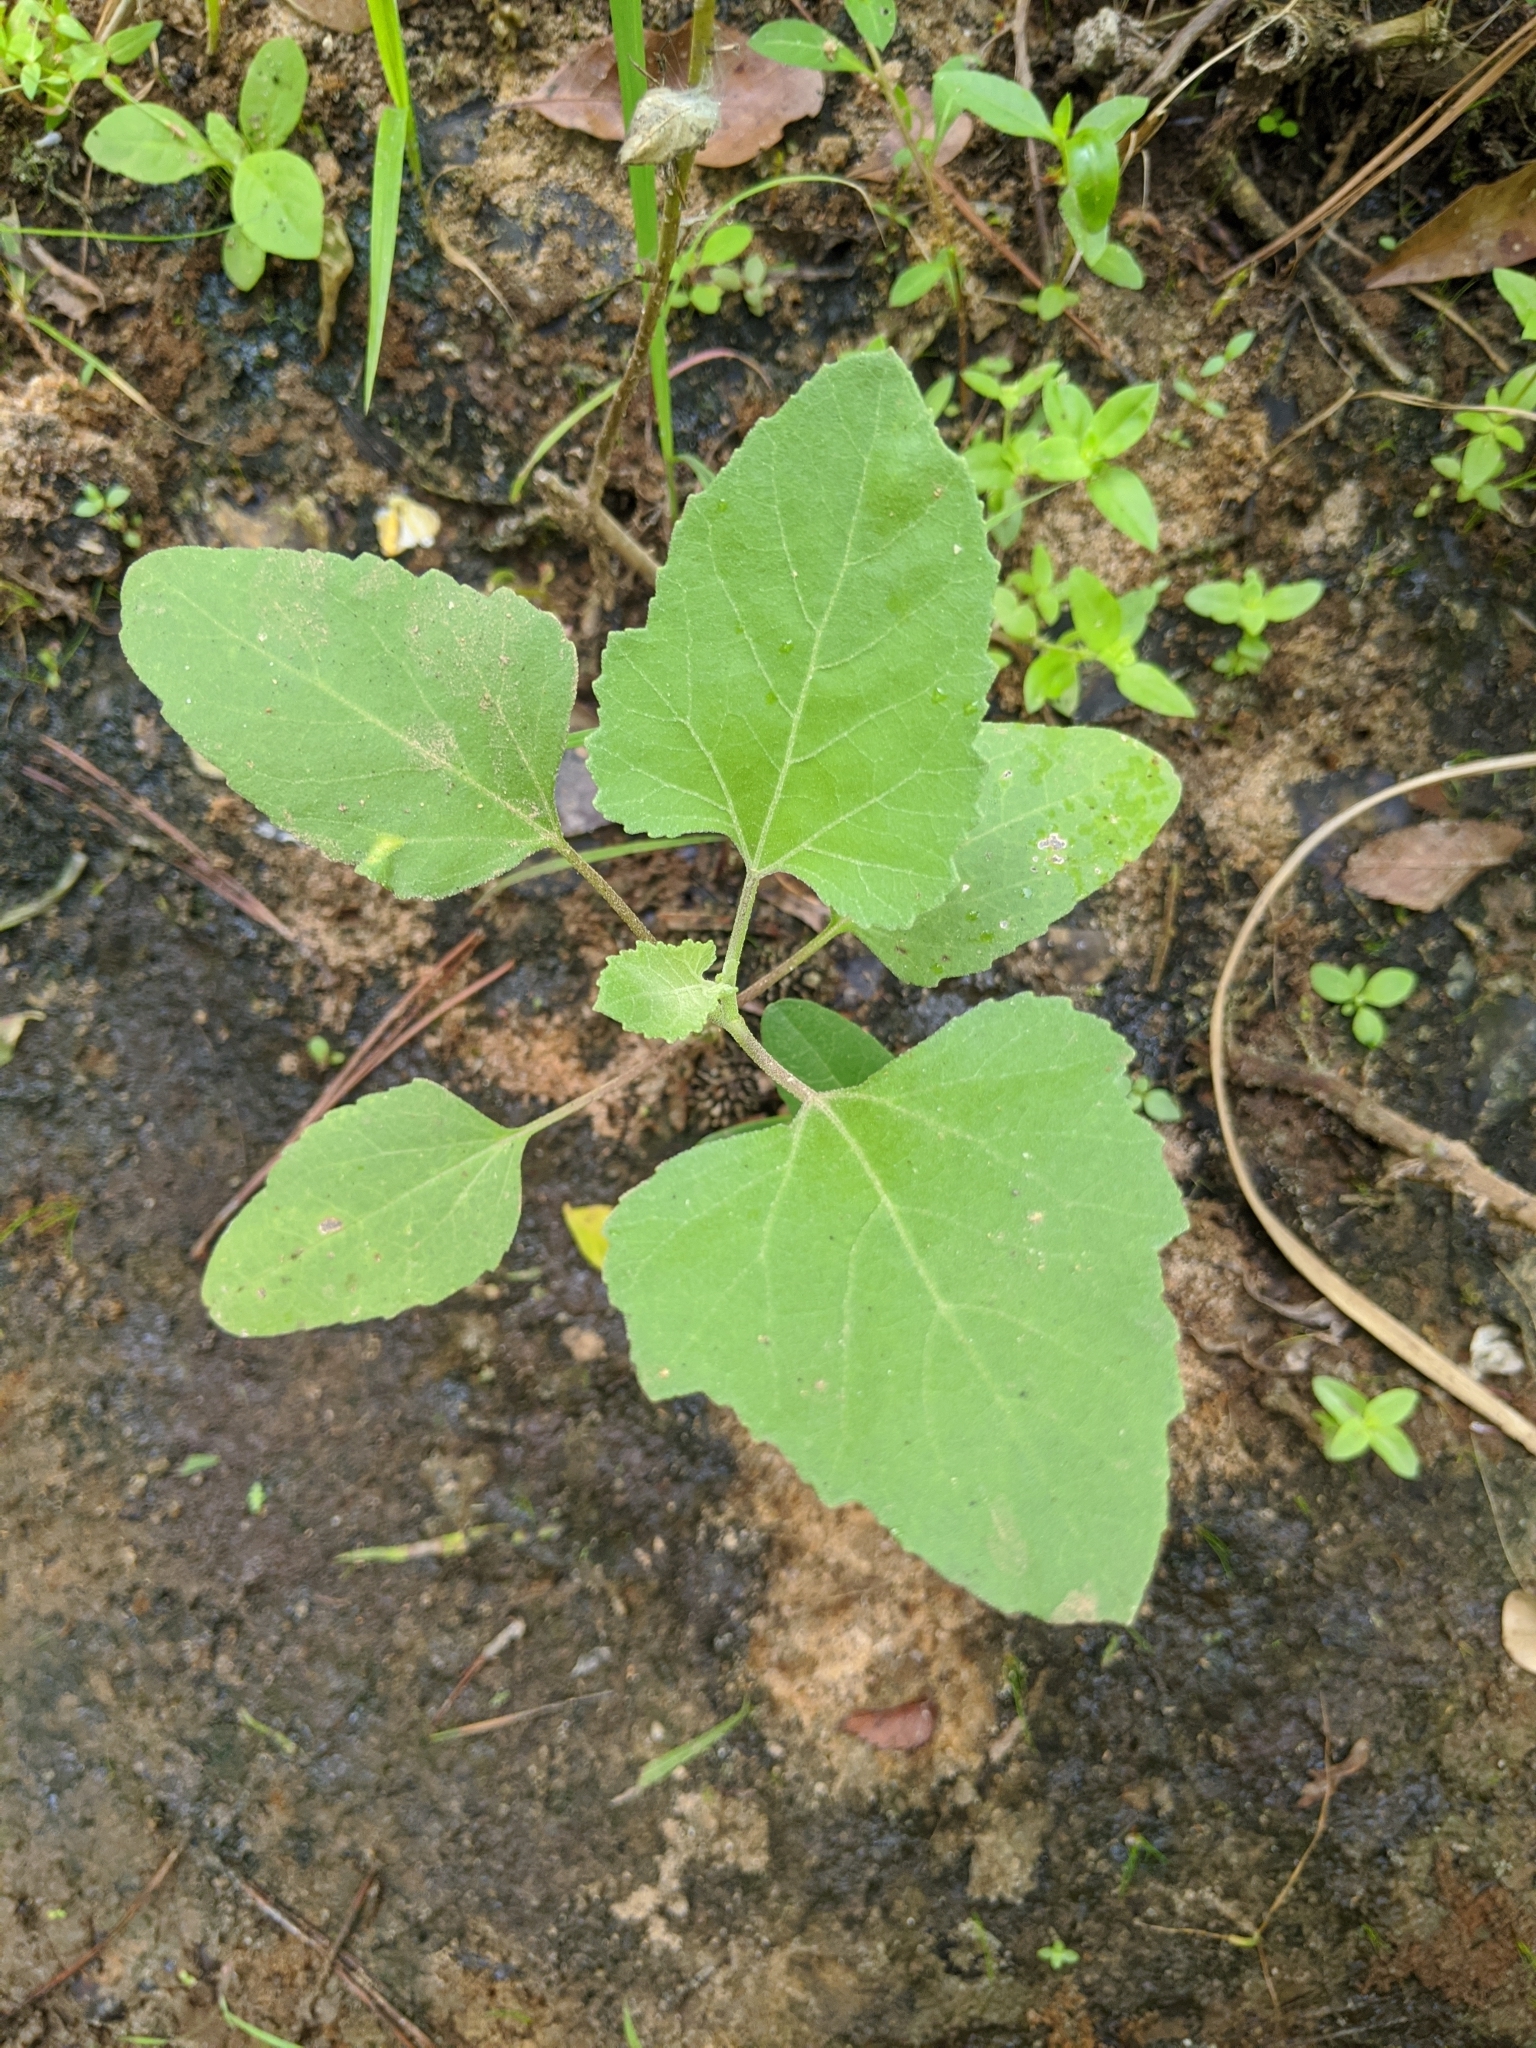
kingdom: Plantae
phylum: Tracheophyta
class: Magnoliopsida
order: Asterales
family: Asteraceae
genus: Xanthium
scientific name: Xanthium strumarium
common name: Rough cocklebur
